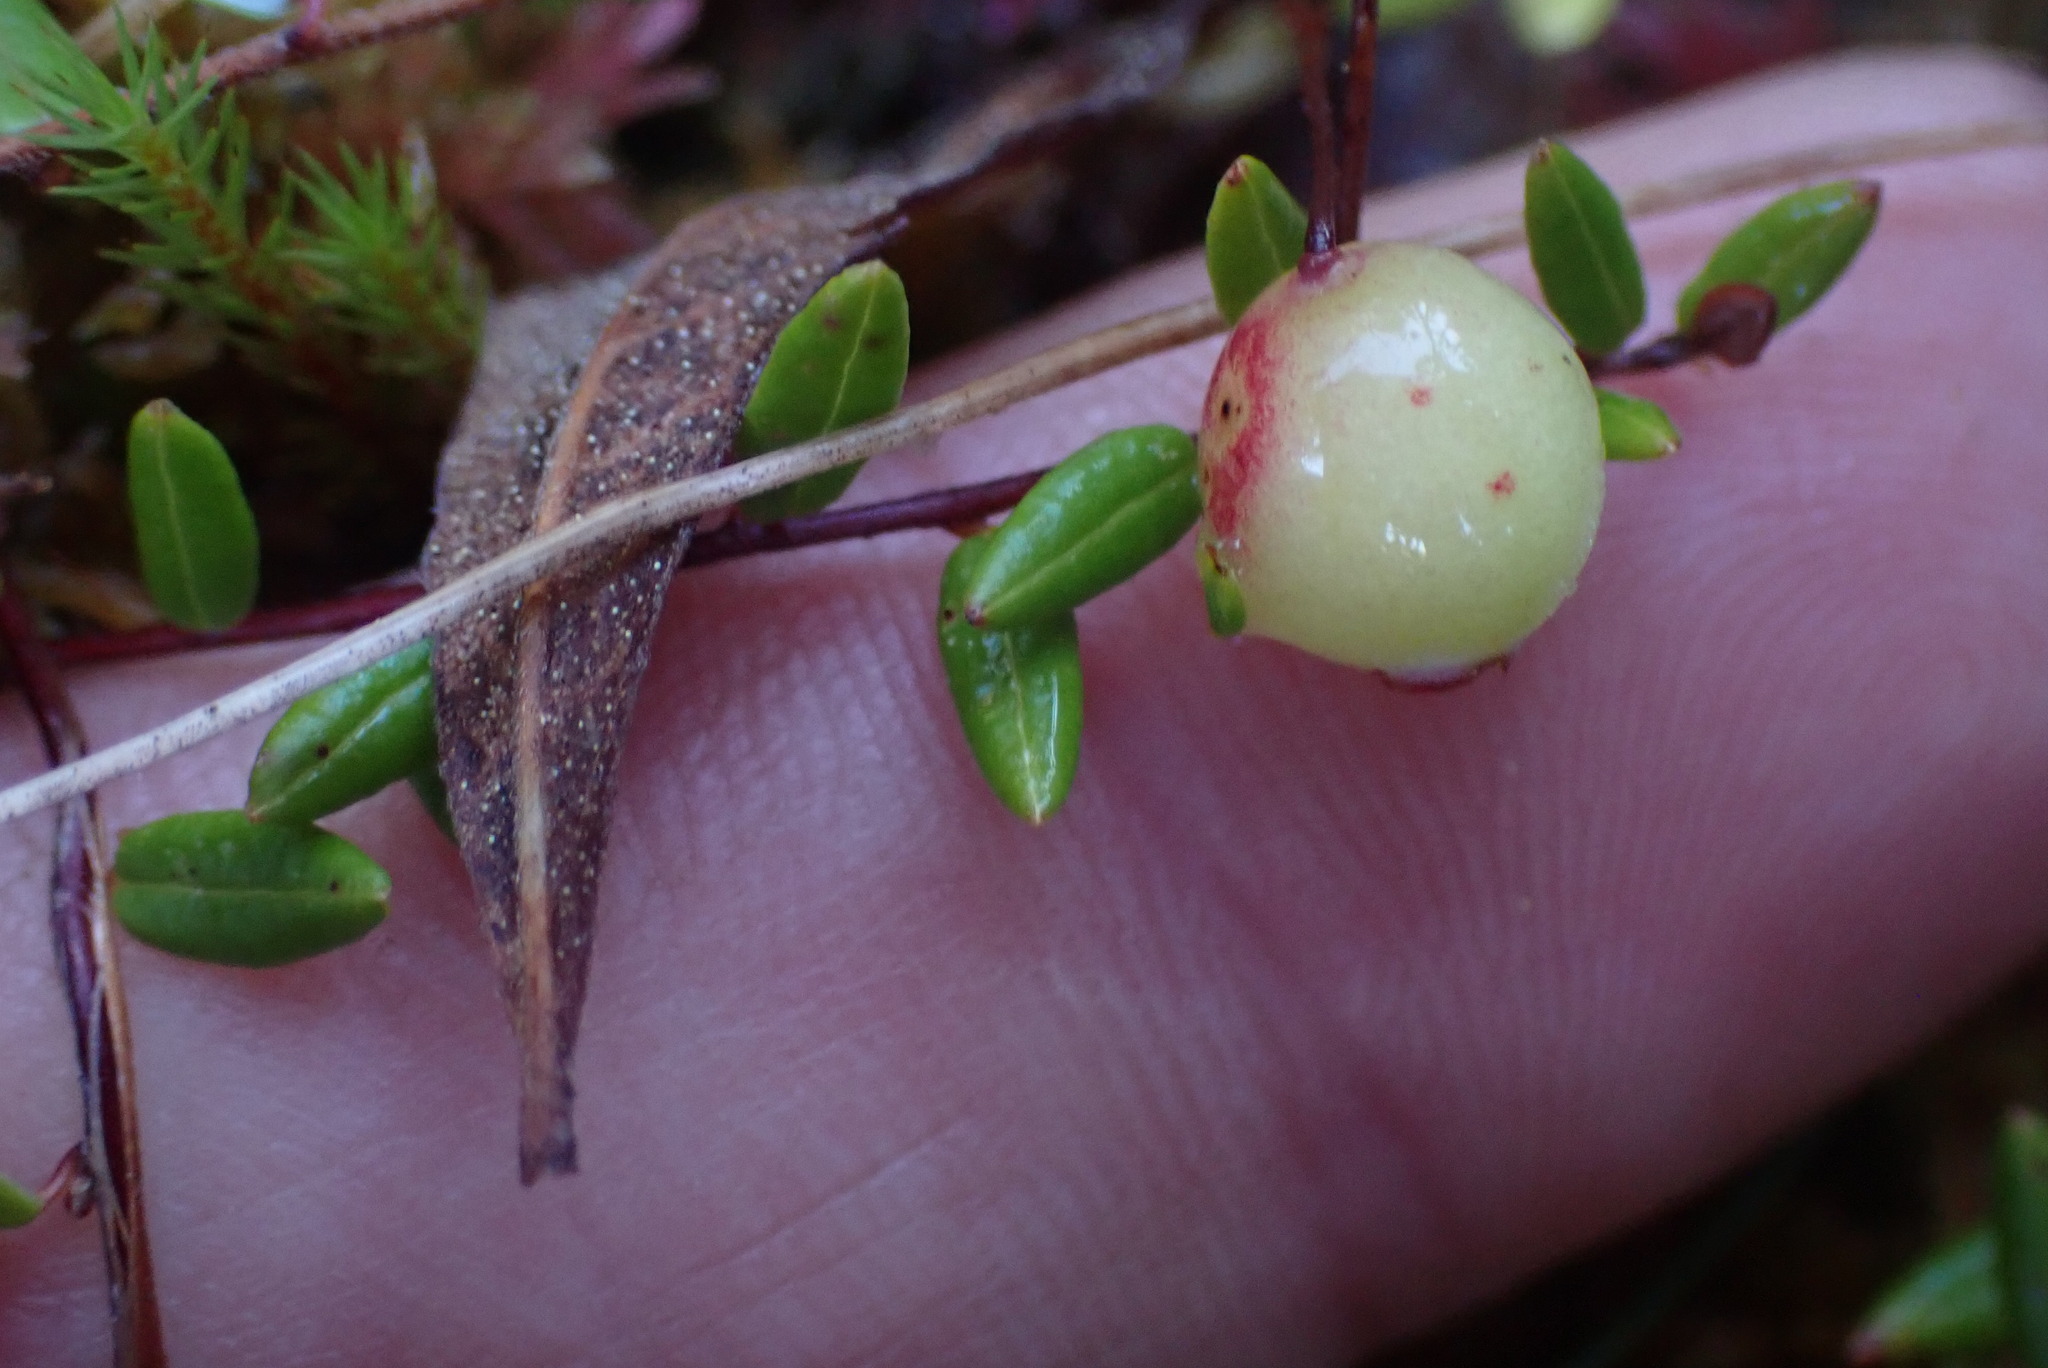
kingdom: Plantae
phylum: Tracheophyta
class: Magnoliopsida
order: Ericales
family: Ericaceae
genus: Vaccinium
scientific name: Vaccinium oxycoccos
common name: Cranberry
